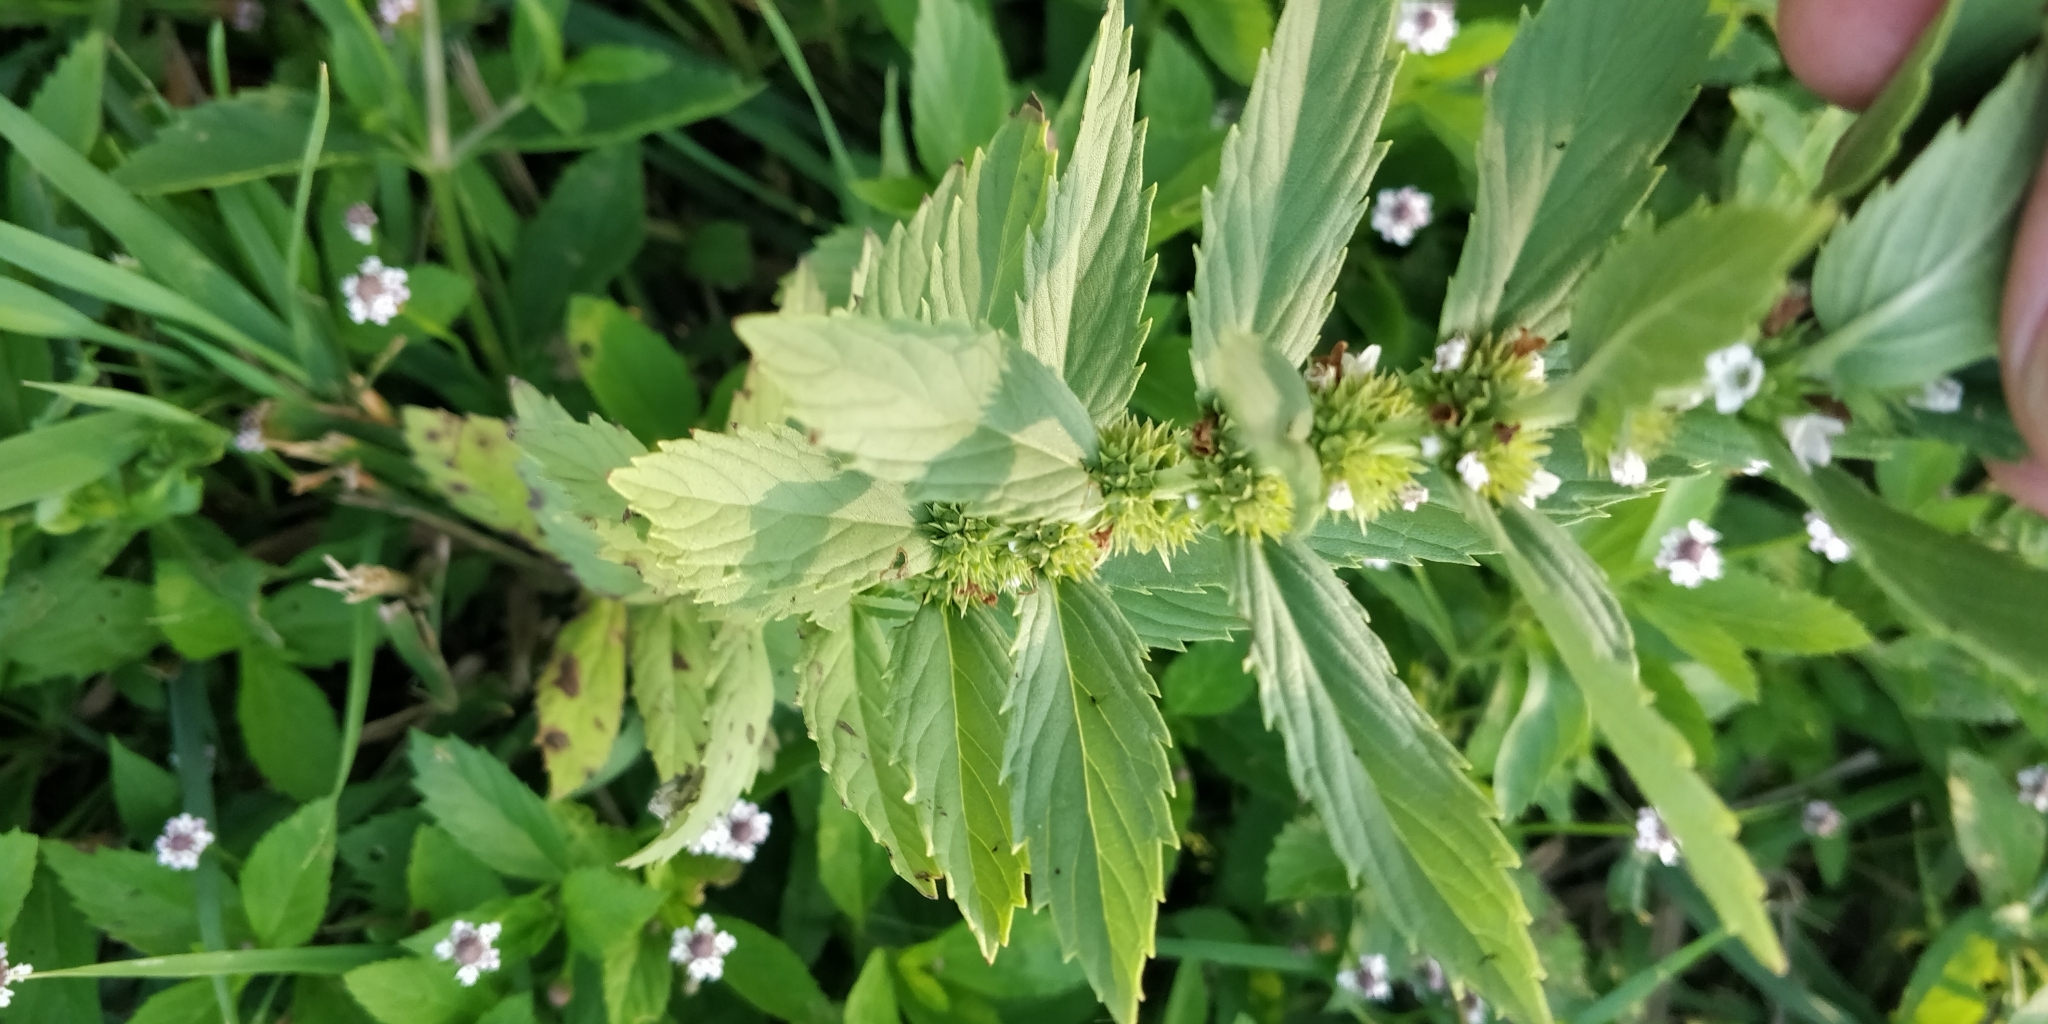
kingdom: Plantae
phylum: Tracheophyta
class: Magnoliopsida
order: Lamiales
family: Lamiaceae
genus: Lycopus
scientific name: Lycopus asper
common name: Rough water-horehound
